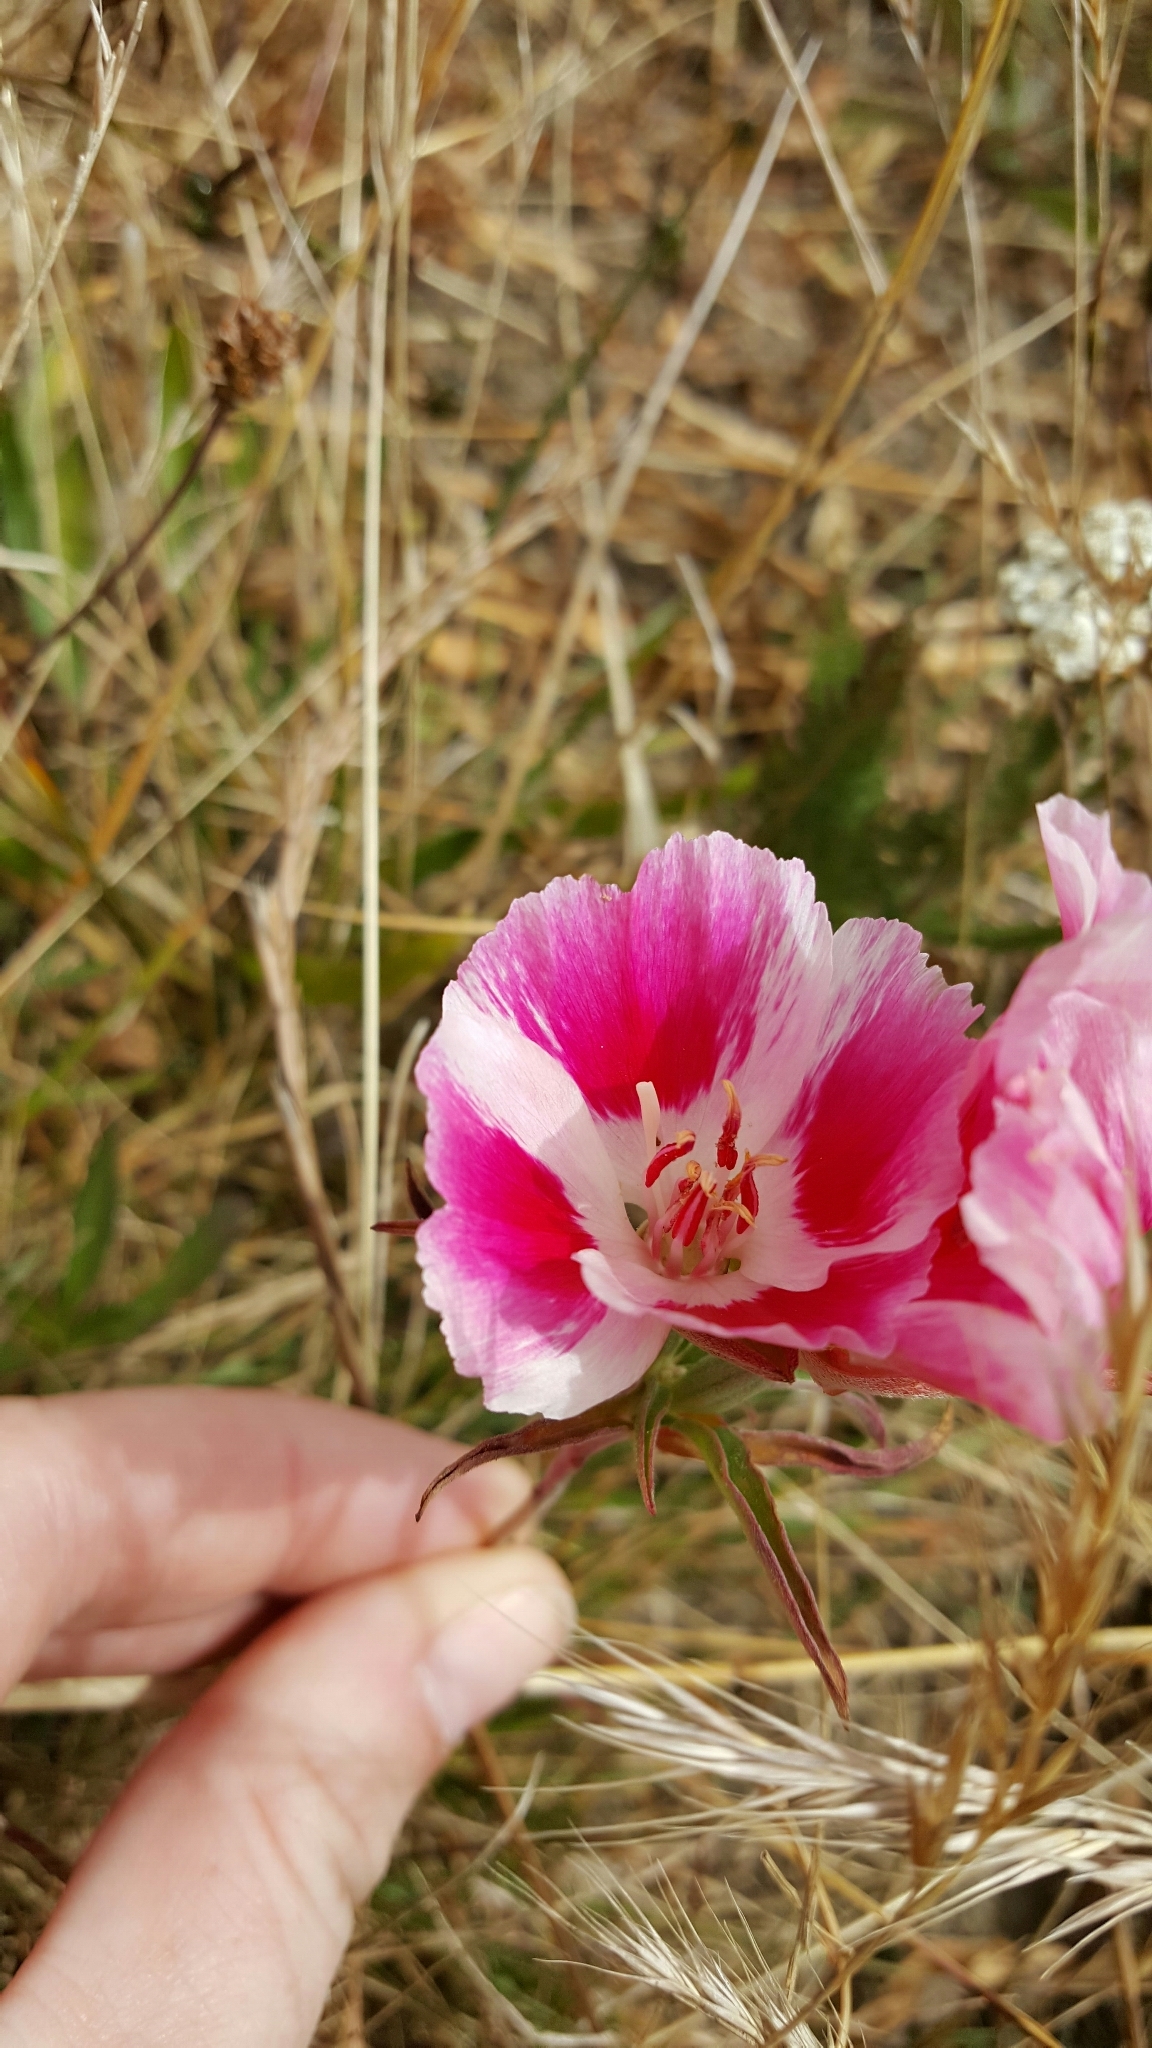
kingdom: Plantae
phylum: Tracheophyta
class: Magnoliopsida
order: Myrtales
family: Onagraceae
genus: Clarkia
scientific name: Clarkia amoena
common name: Godetia
